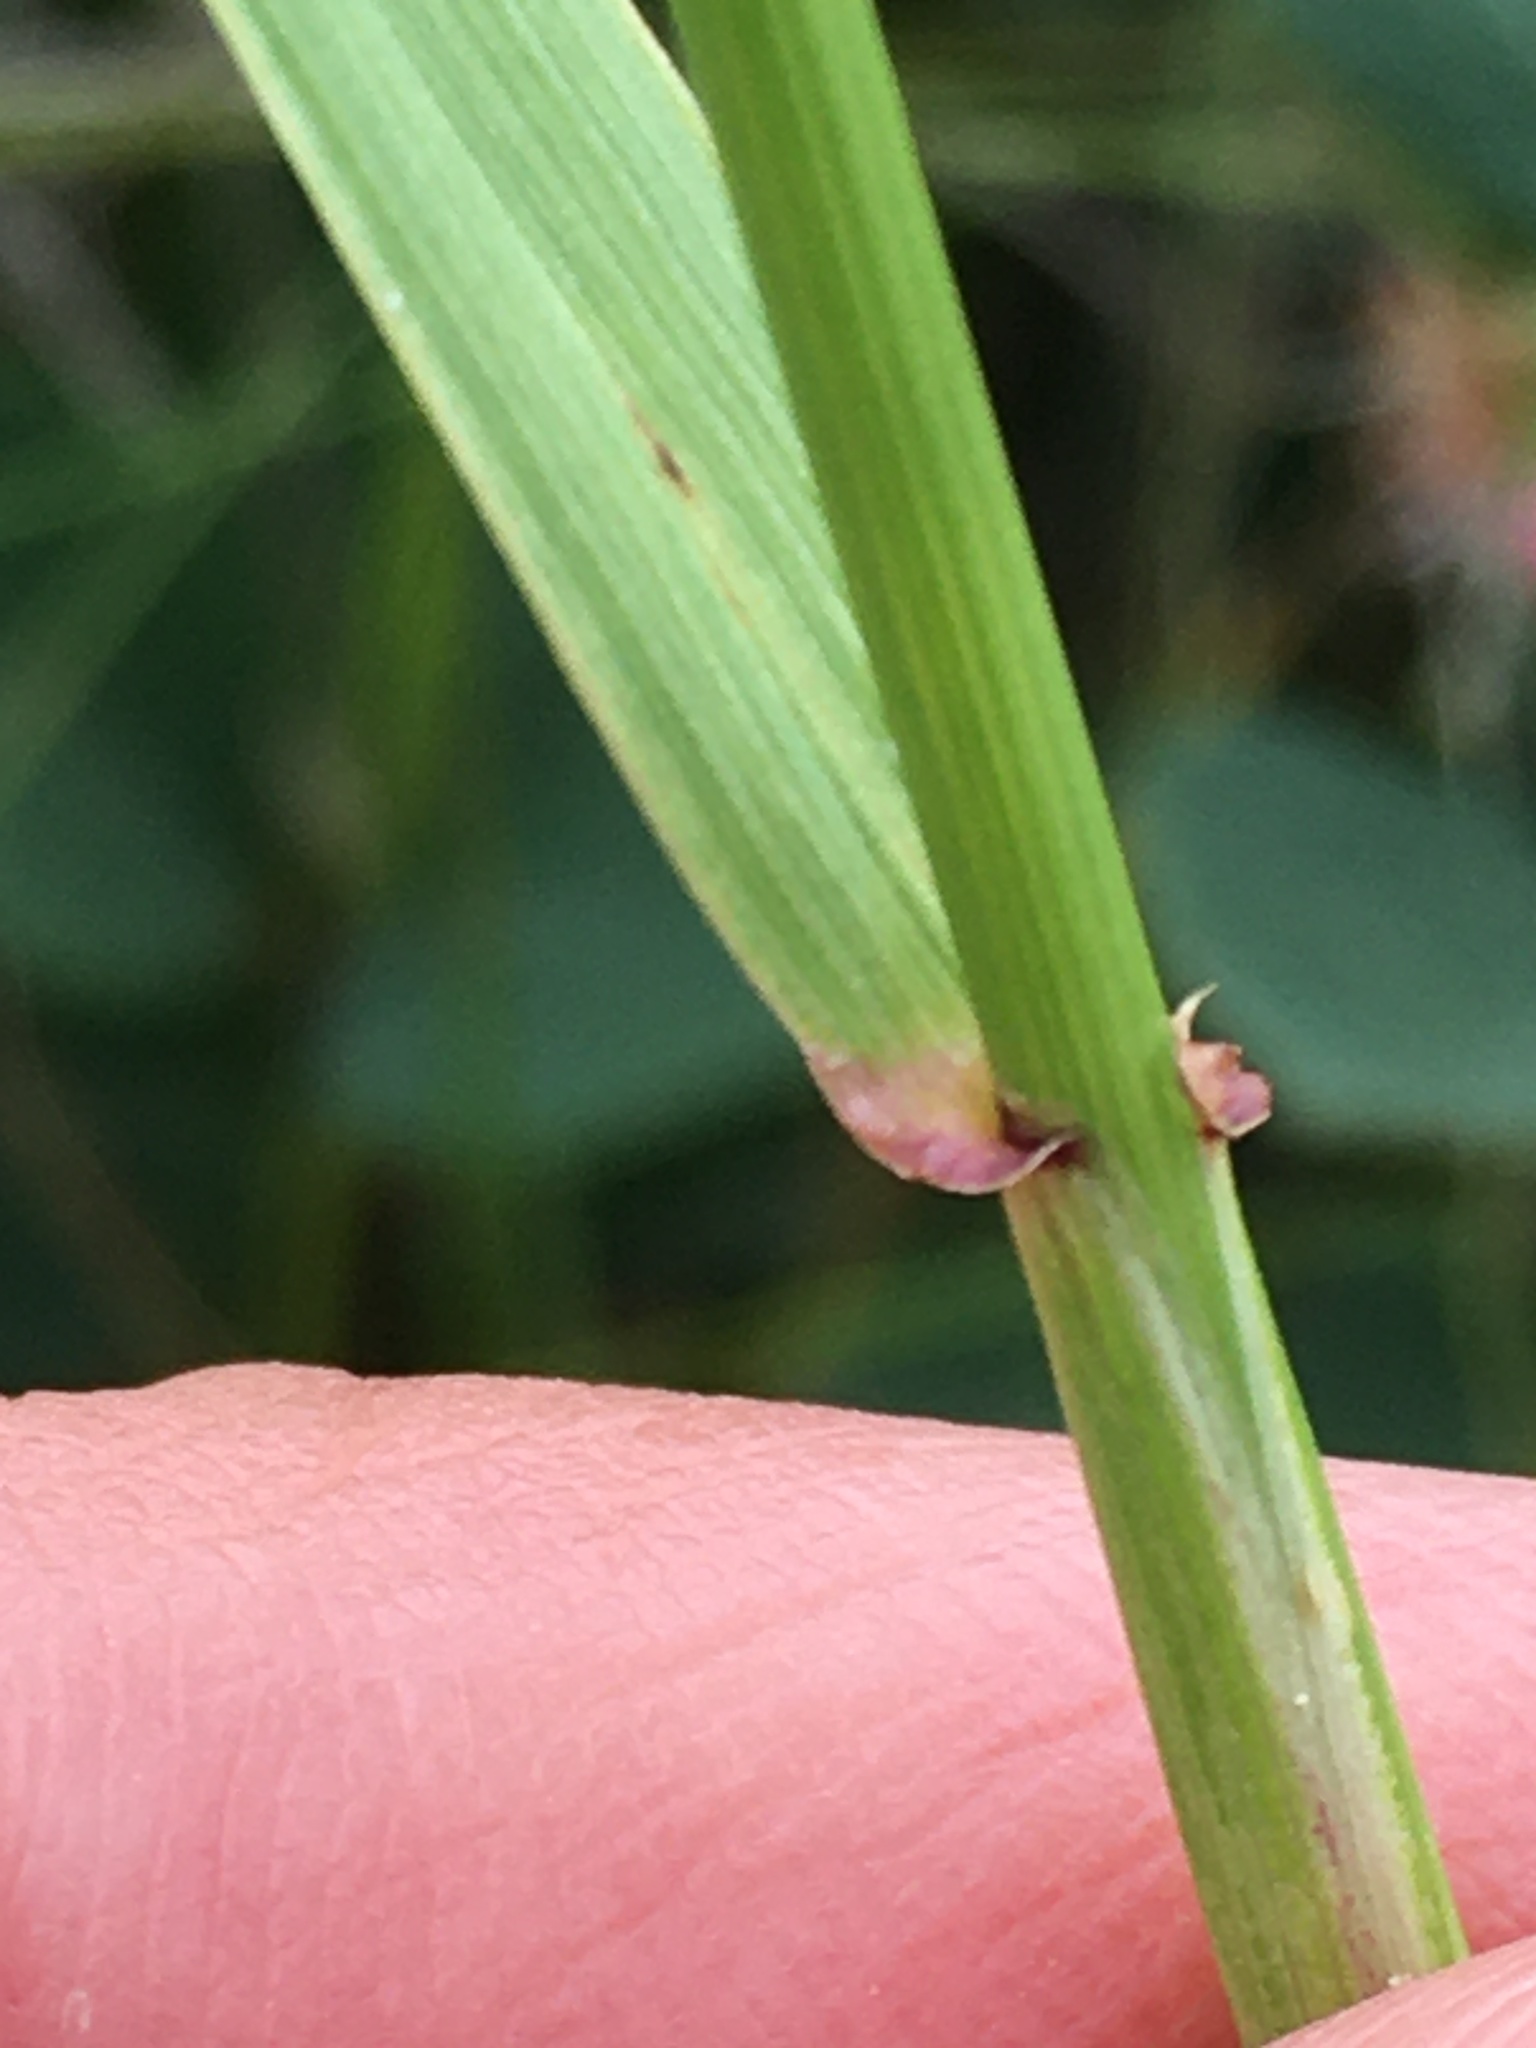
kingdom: Plantae
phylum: Tracheophyta
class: Liliopsida
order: Poales
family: Poaceae
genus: Elymus
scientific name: Elymus canadensis
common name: Canada wild rye
